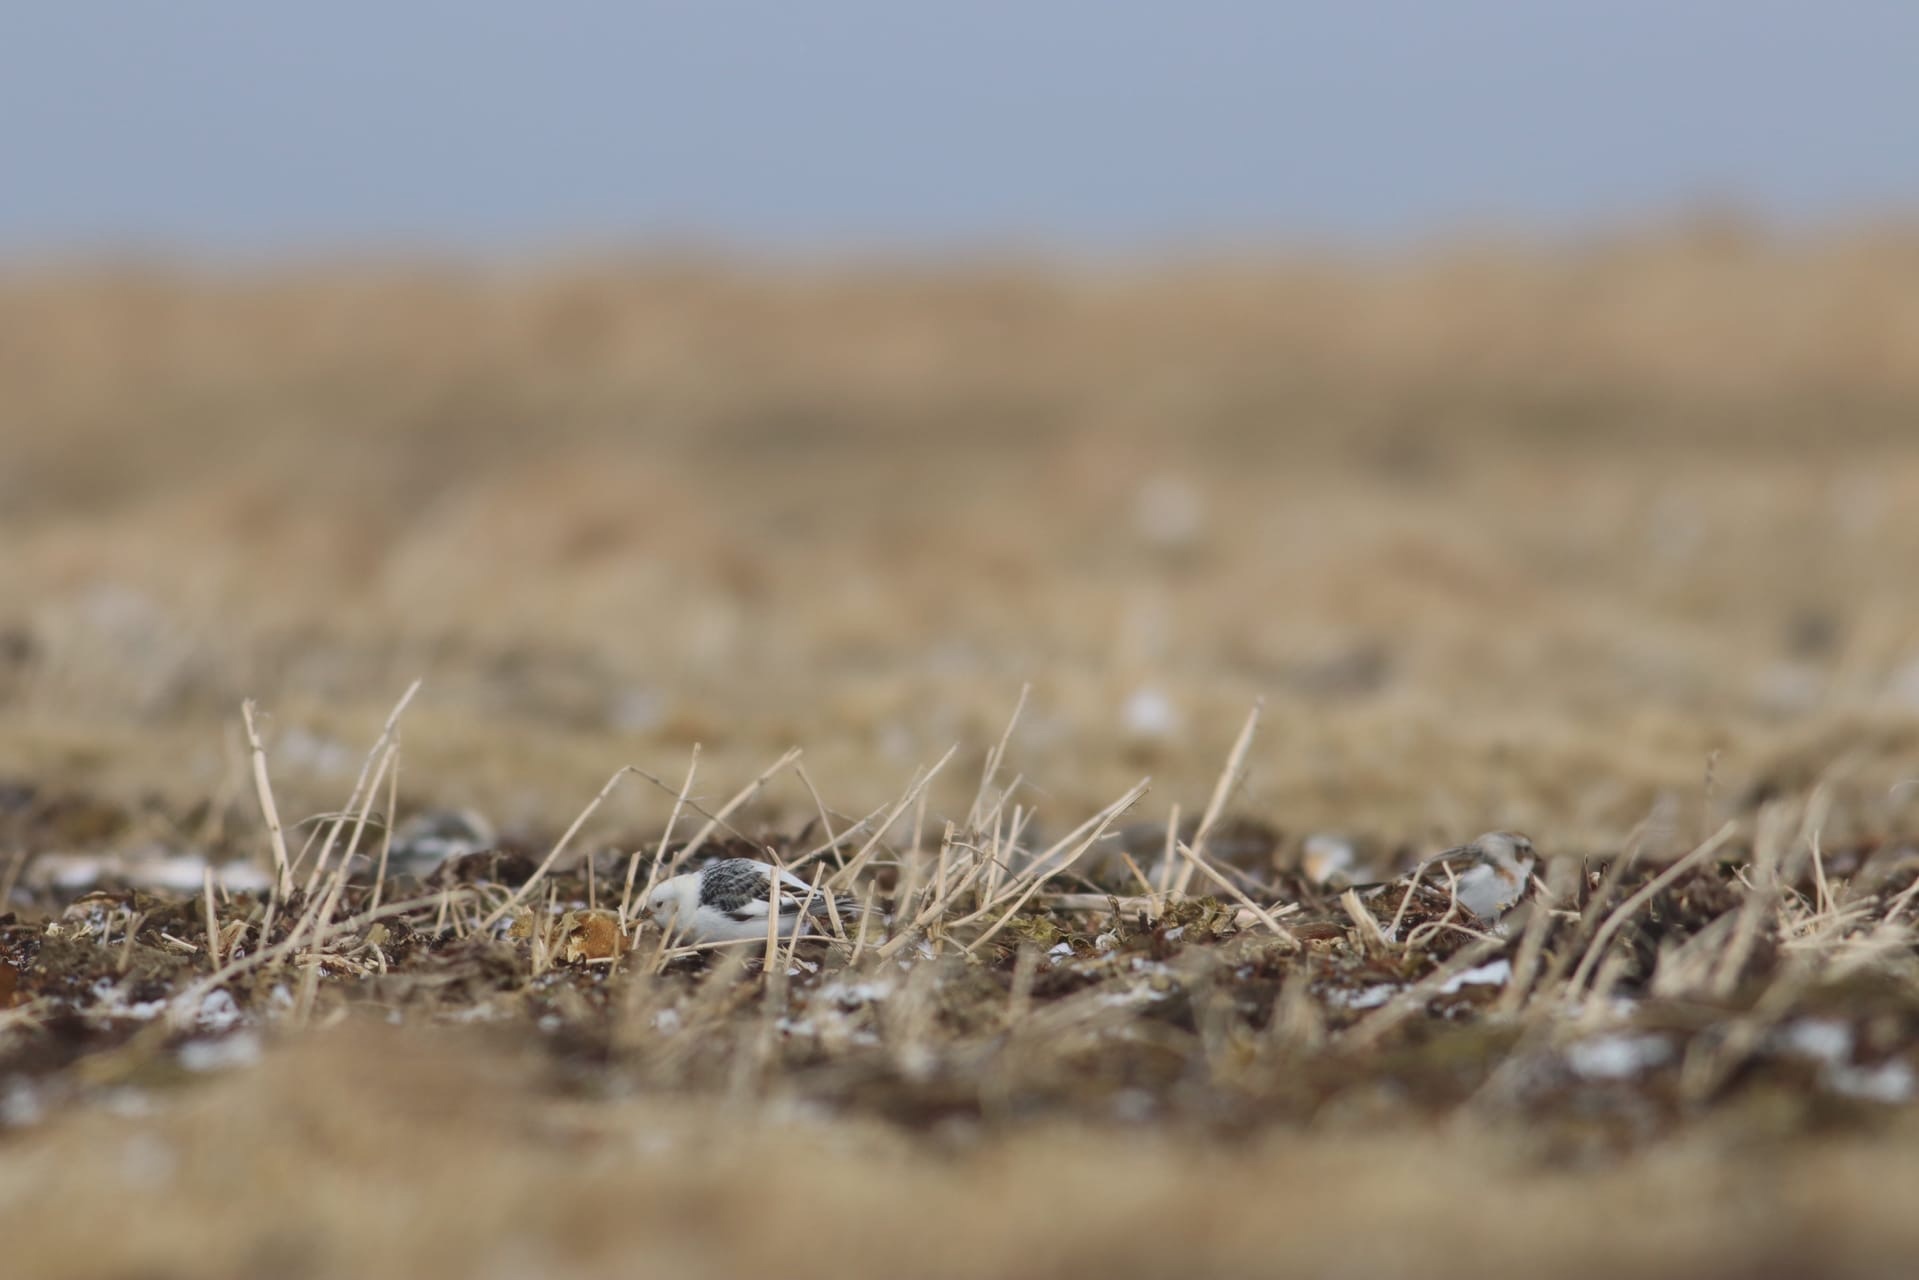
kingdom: Animalia
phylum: Chordata
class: Aves
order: Passeriformes
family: Calcariidae
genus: Plectrophenax
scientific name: Plectrophenax nivalis
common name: Snow bunting
